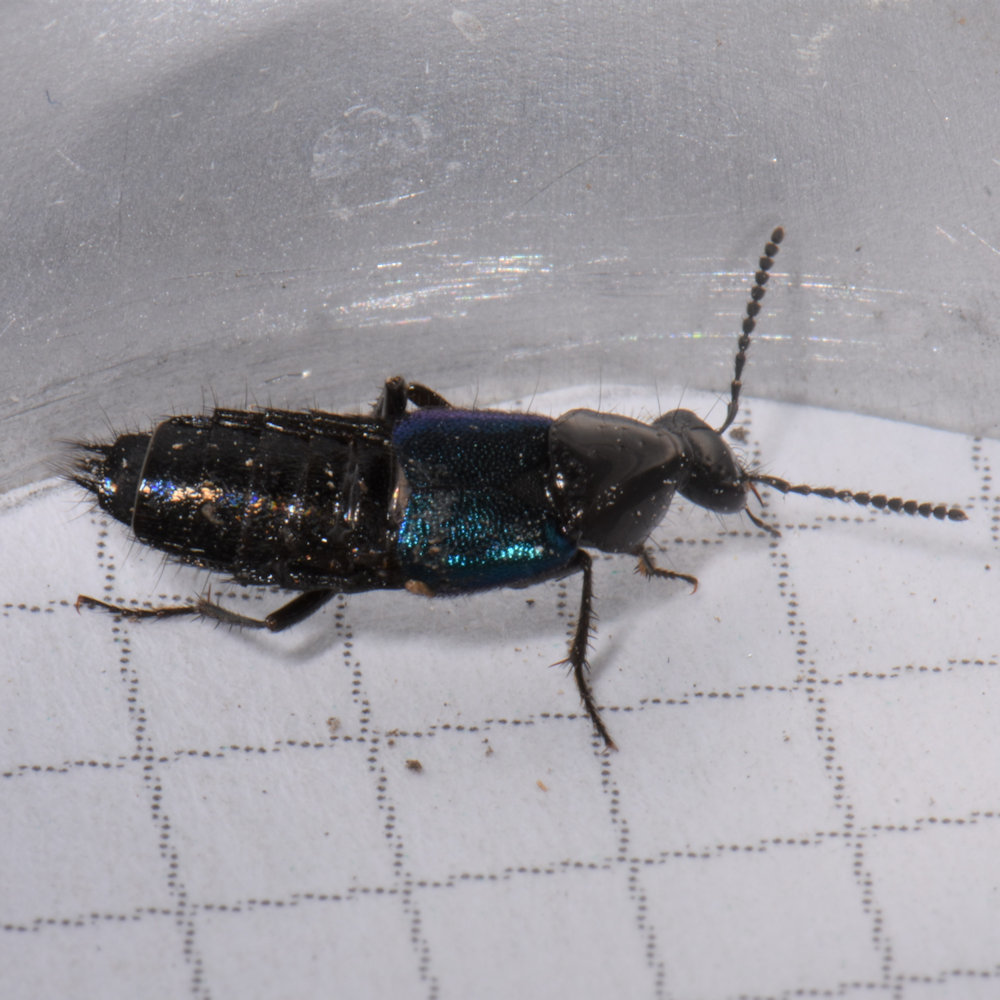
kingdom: Animalia
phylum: Arthropoda
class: Insecta
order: Coleoptera
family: Staphylinidae
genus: Philonthus
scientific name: Philonthus caeruleipennis
